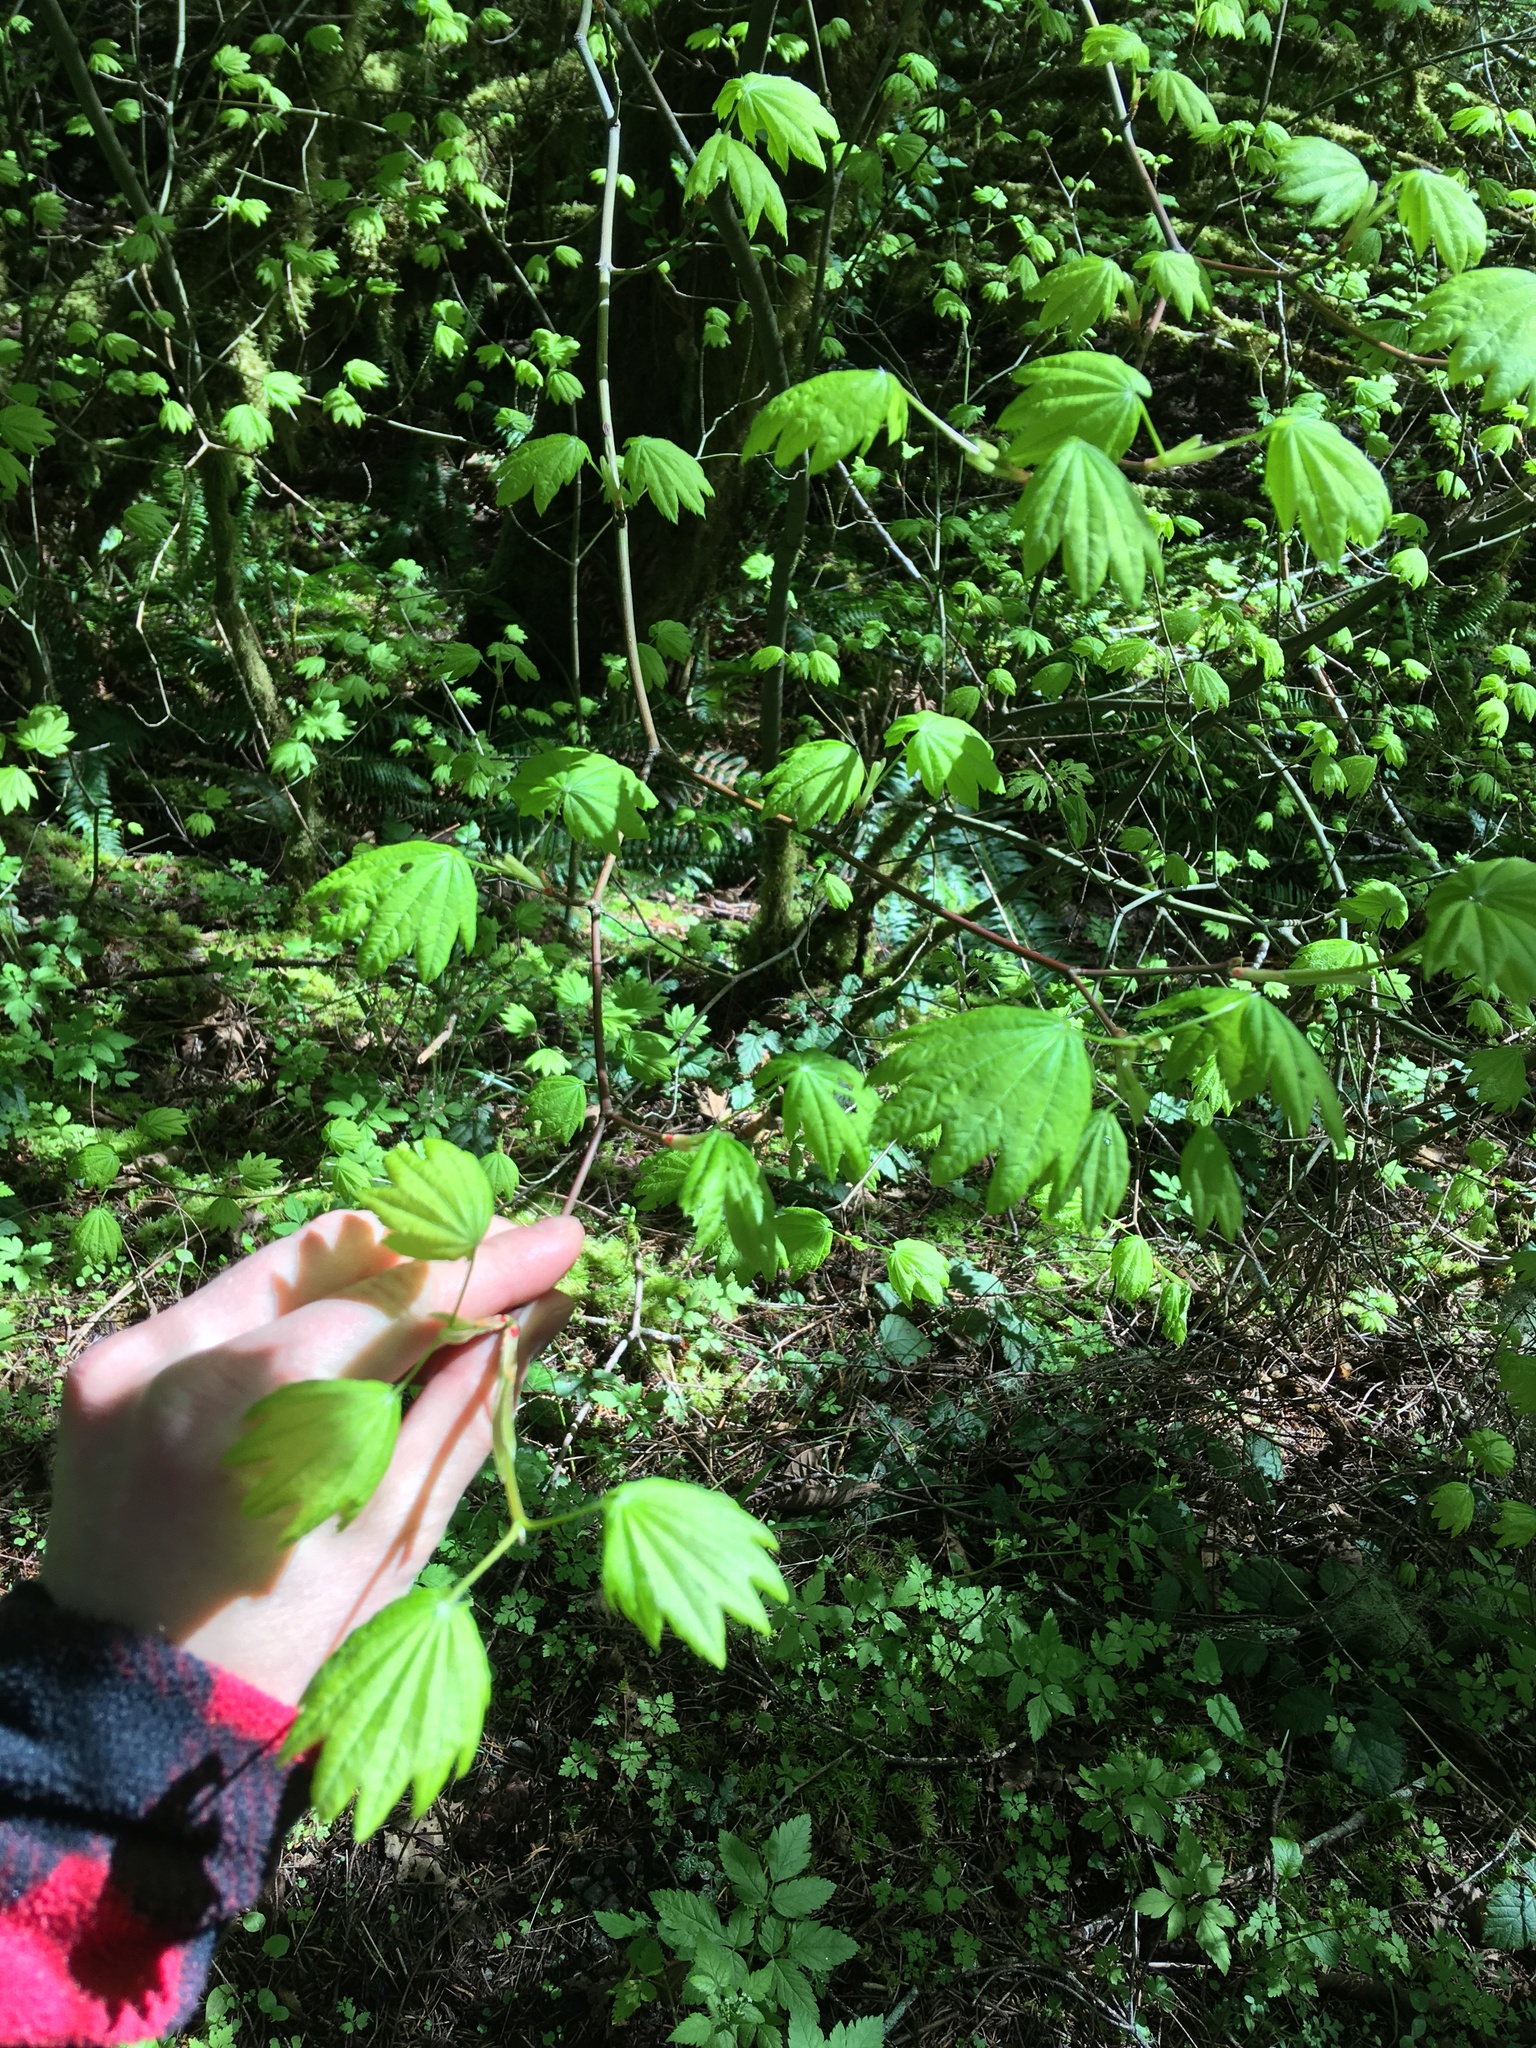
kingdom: Plantae
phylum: Tracheophyta
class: Magnoliopsida
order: Sapindales
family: Sapindaceae
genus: Acer
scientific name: Acer circinatum
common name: Vine maple
